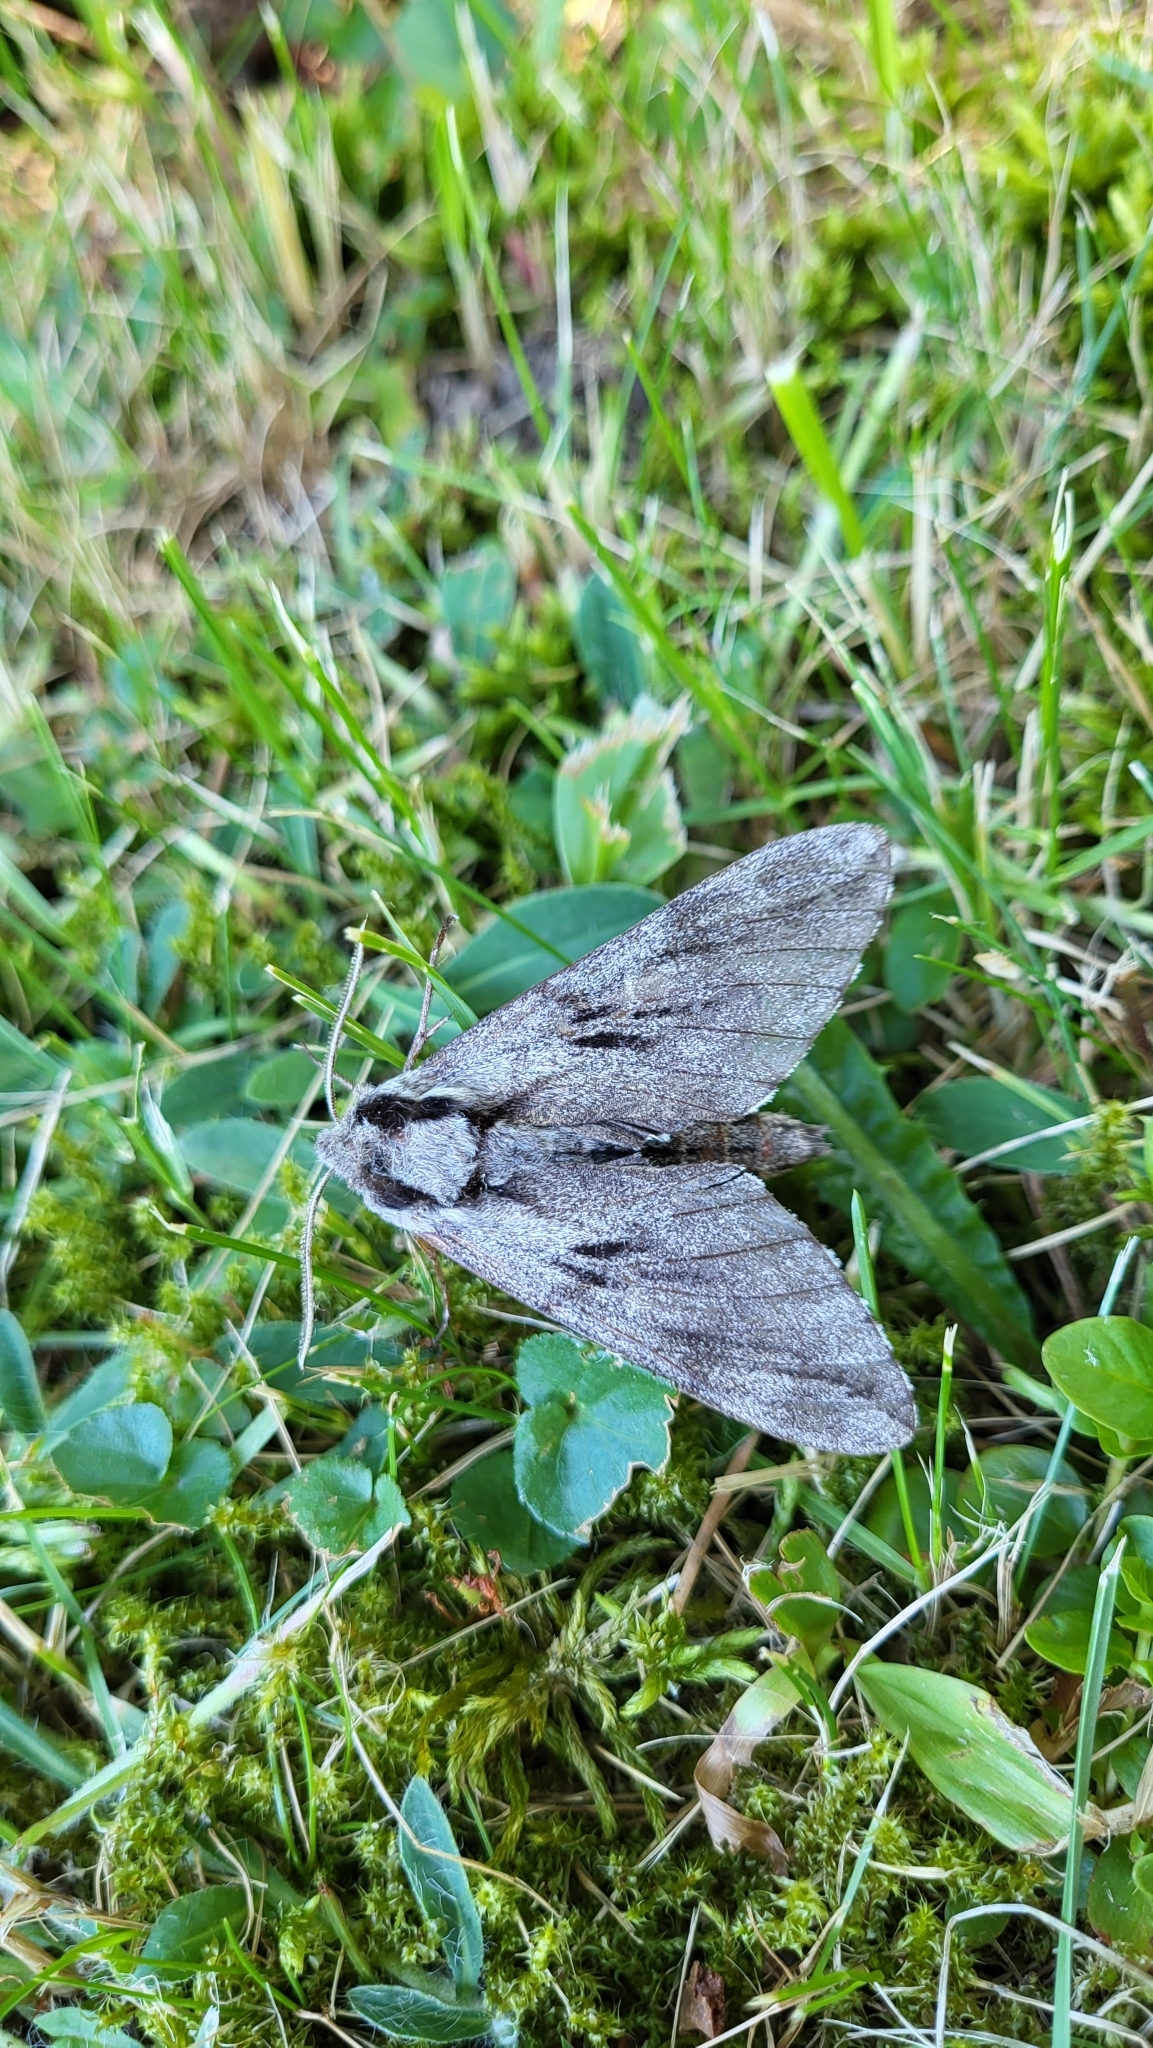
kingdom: Animalia
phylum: Arthropoda
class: Insecta
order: Lepidoptera
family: Sphingidae
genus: Sphinx
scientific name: Sphinx pinastri
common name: Pine hawk-moth
